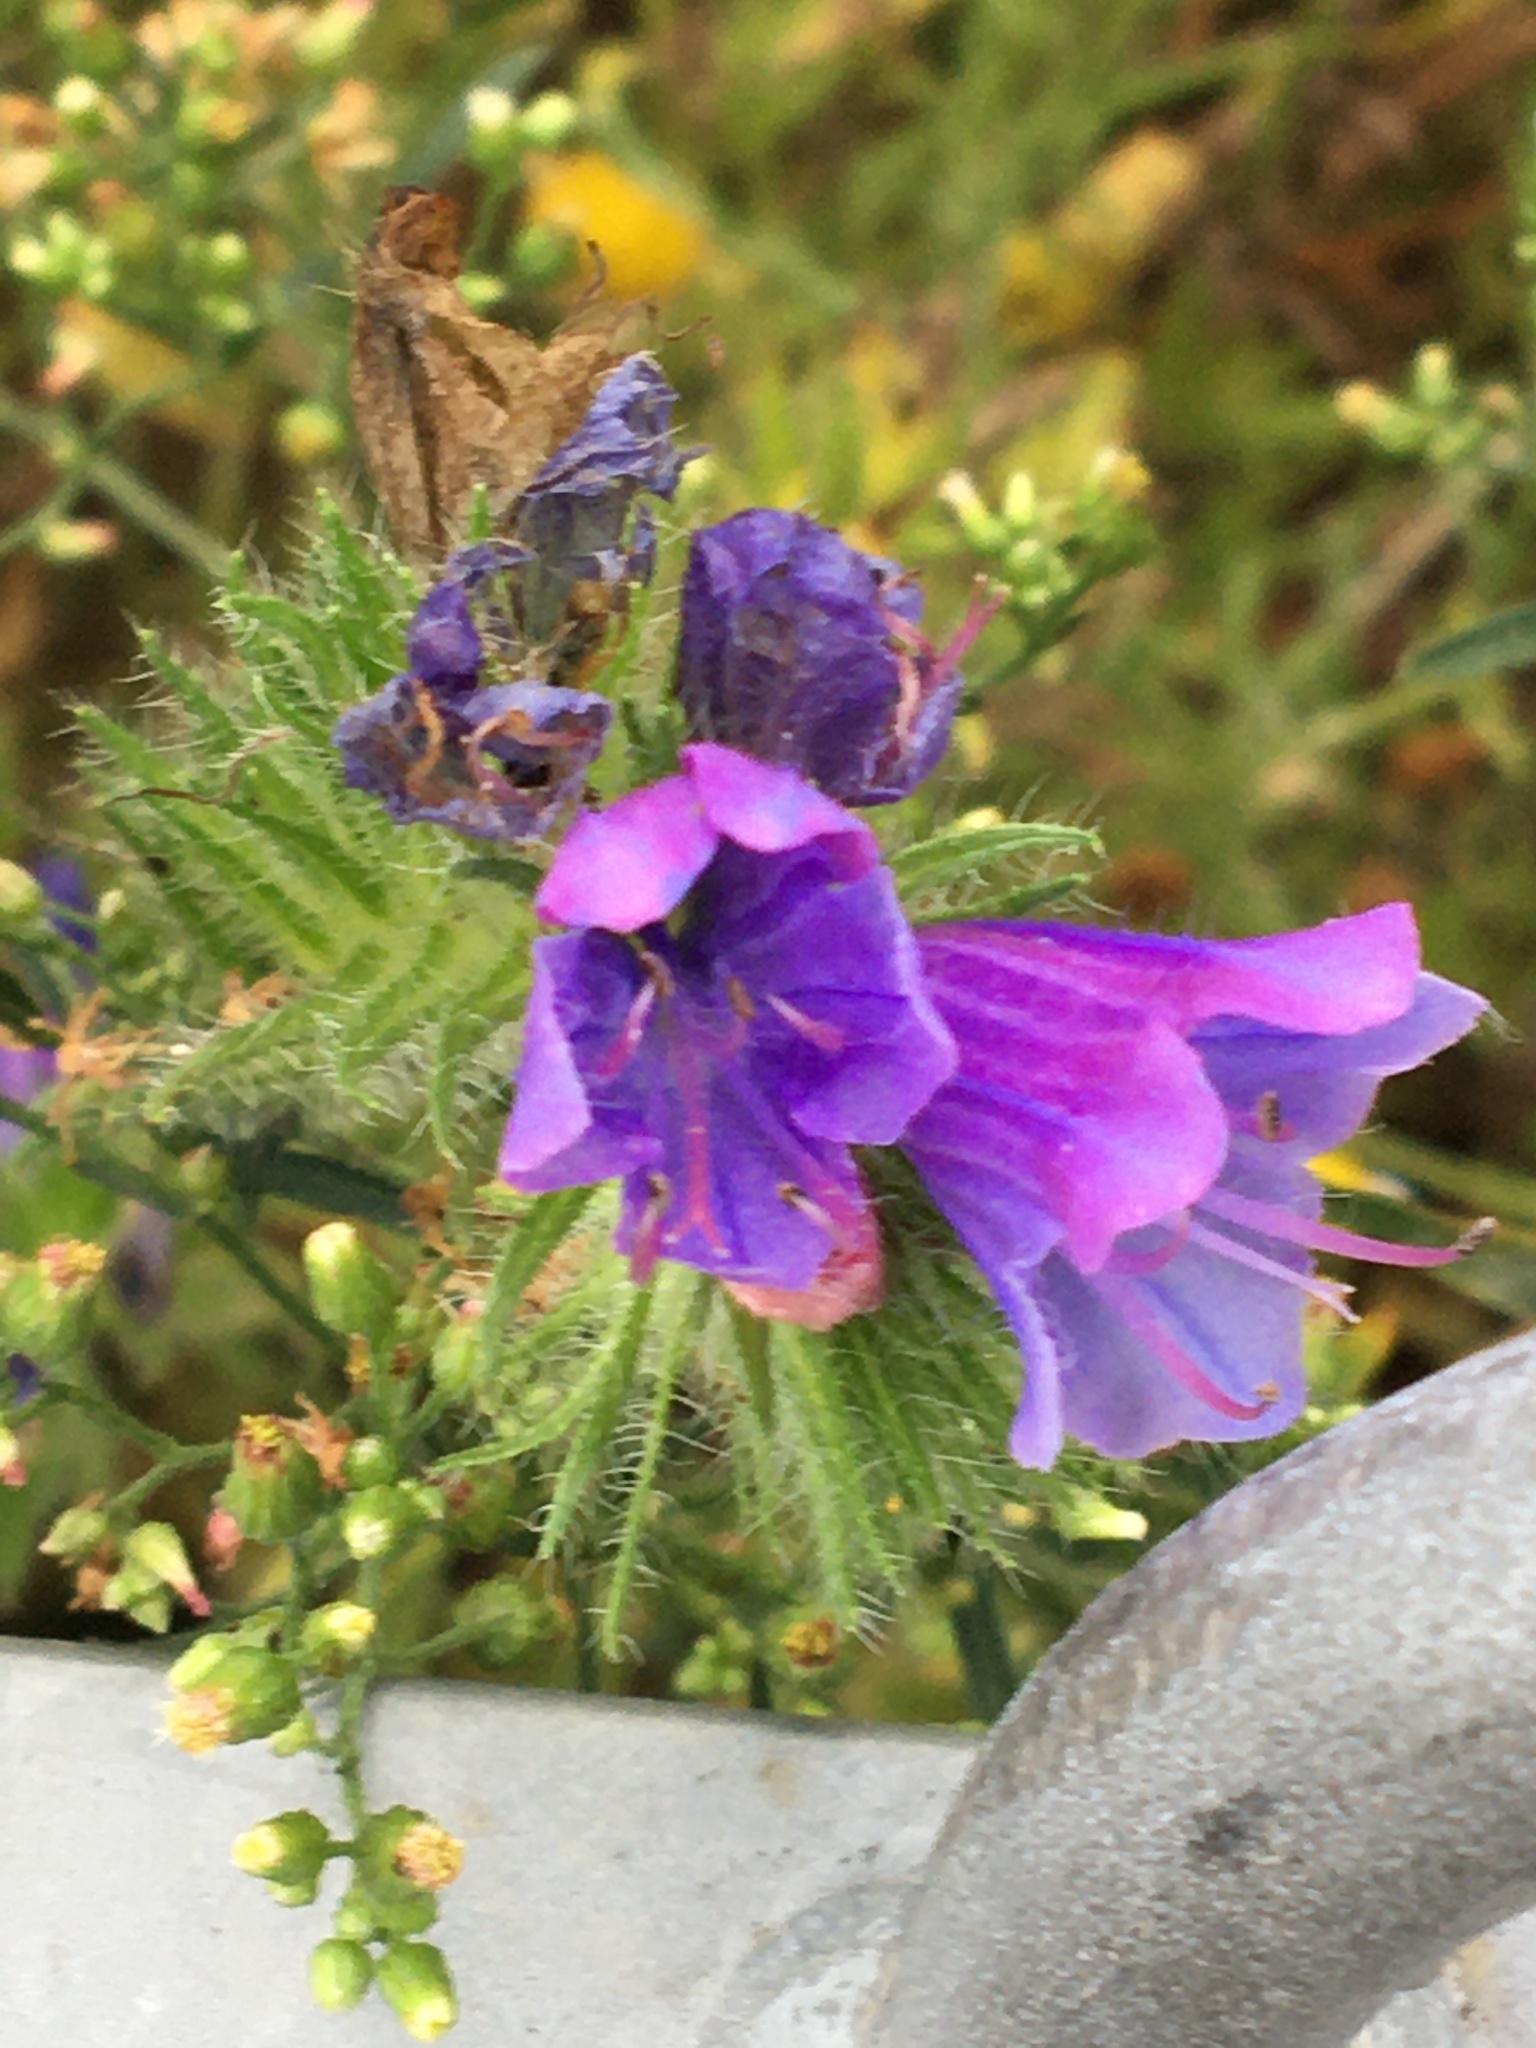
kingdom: Plantae
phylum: Tracheophyta
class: Magnoliopsida
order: Boraginales
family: Boraginaceae
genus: Echium
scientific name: Echium plantagineum
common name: Purple viper's-bugloss
